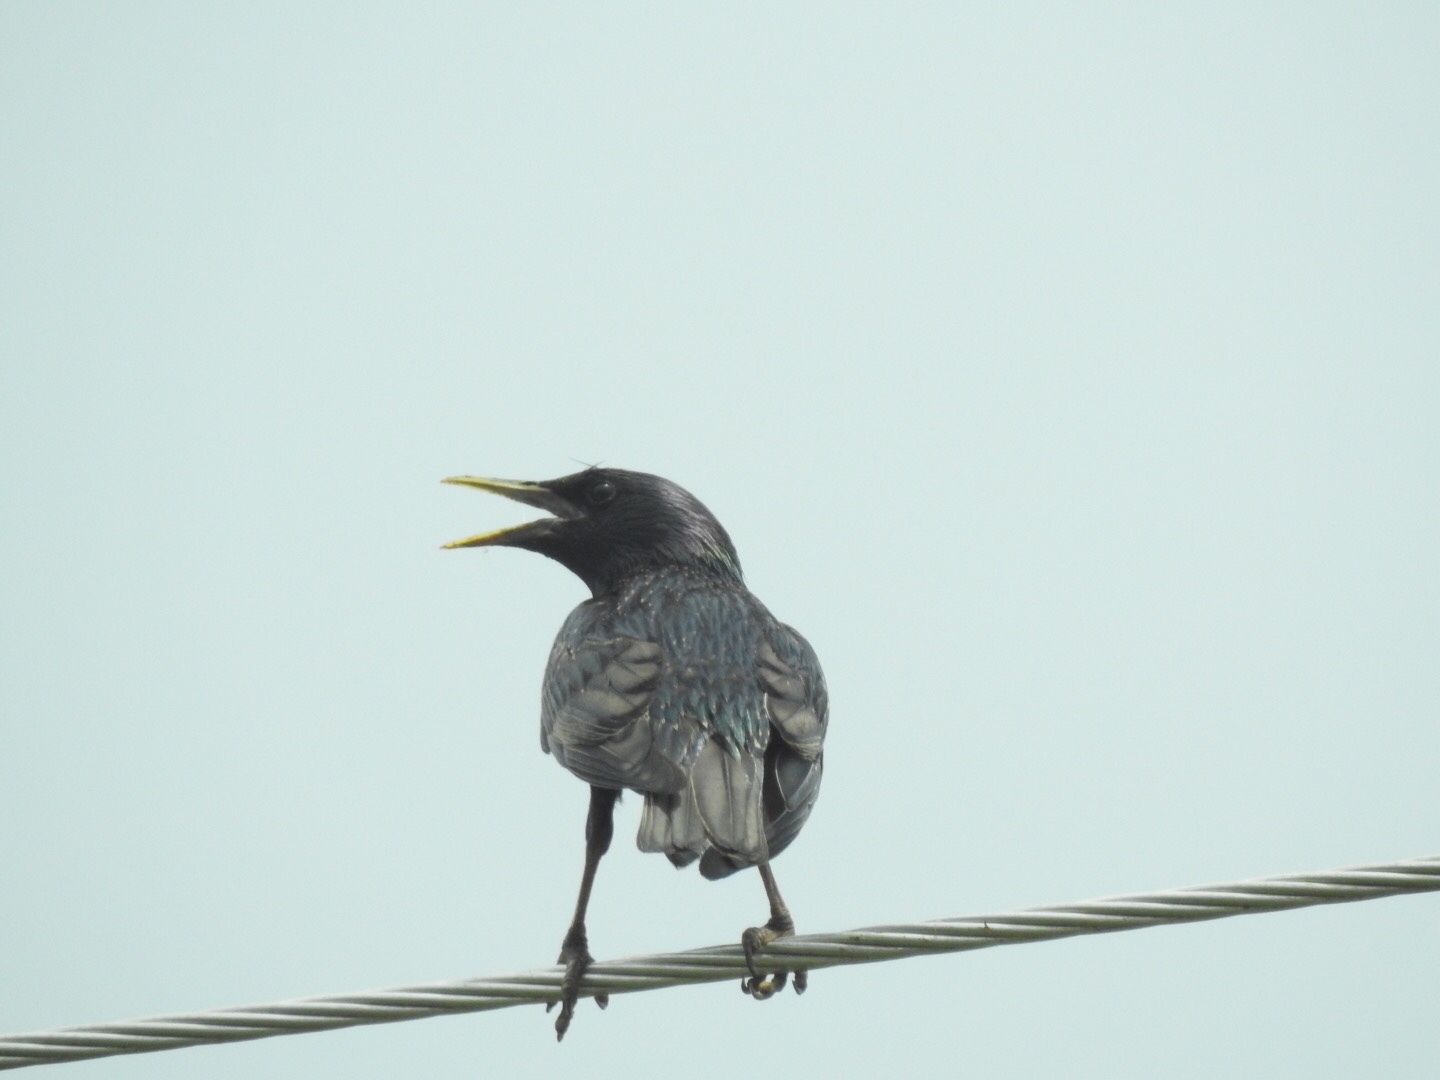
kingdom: Animalia
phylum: Chordata
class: Aves
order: Passeriformes
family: Sturnidae
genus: Sturnus
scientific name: Sturnus vulgaris
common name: Common starling
